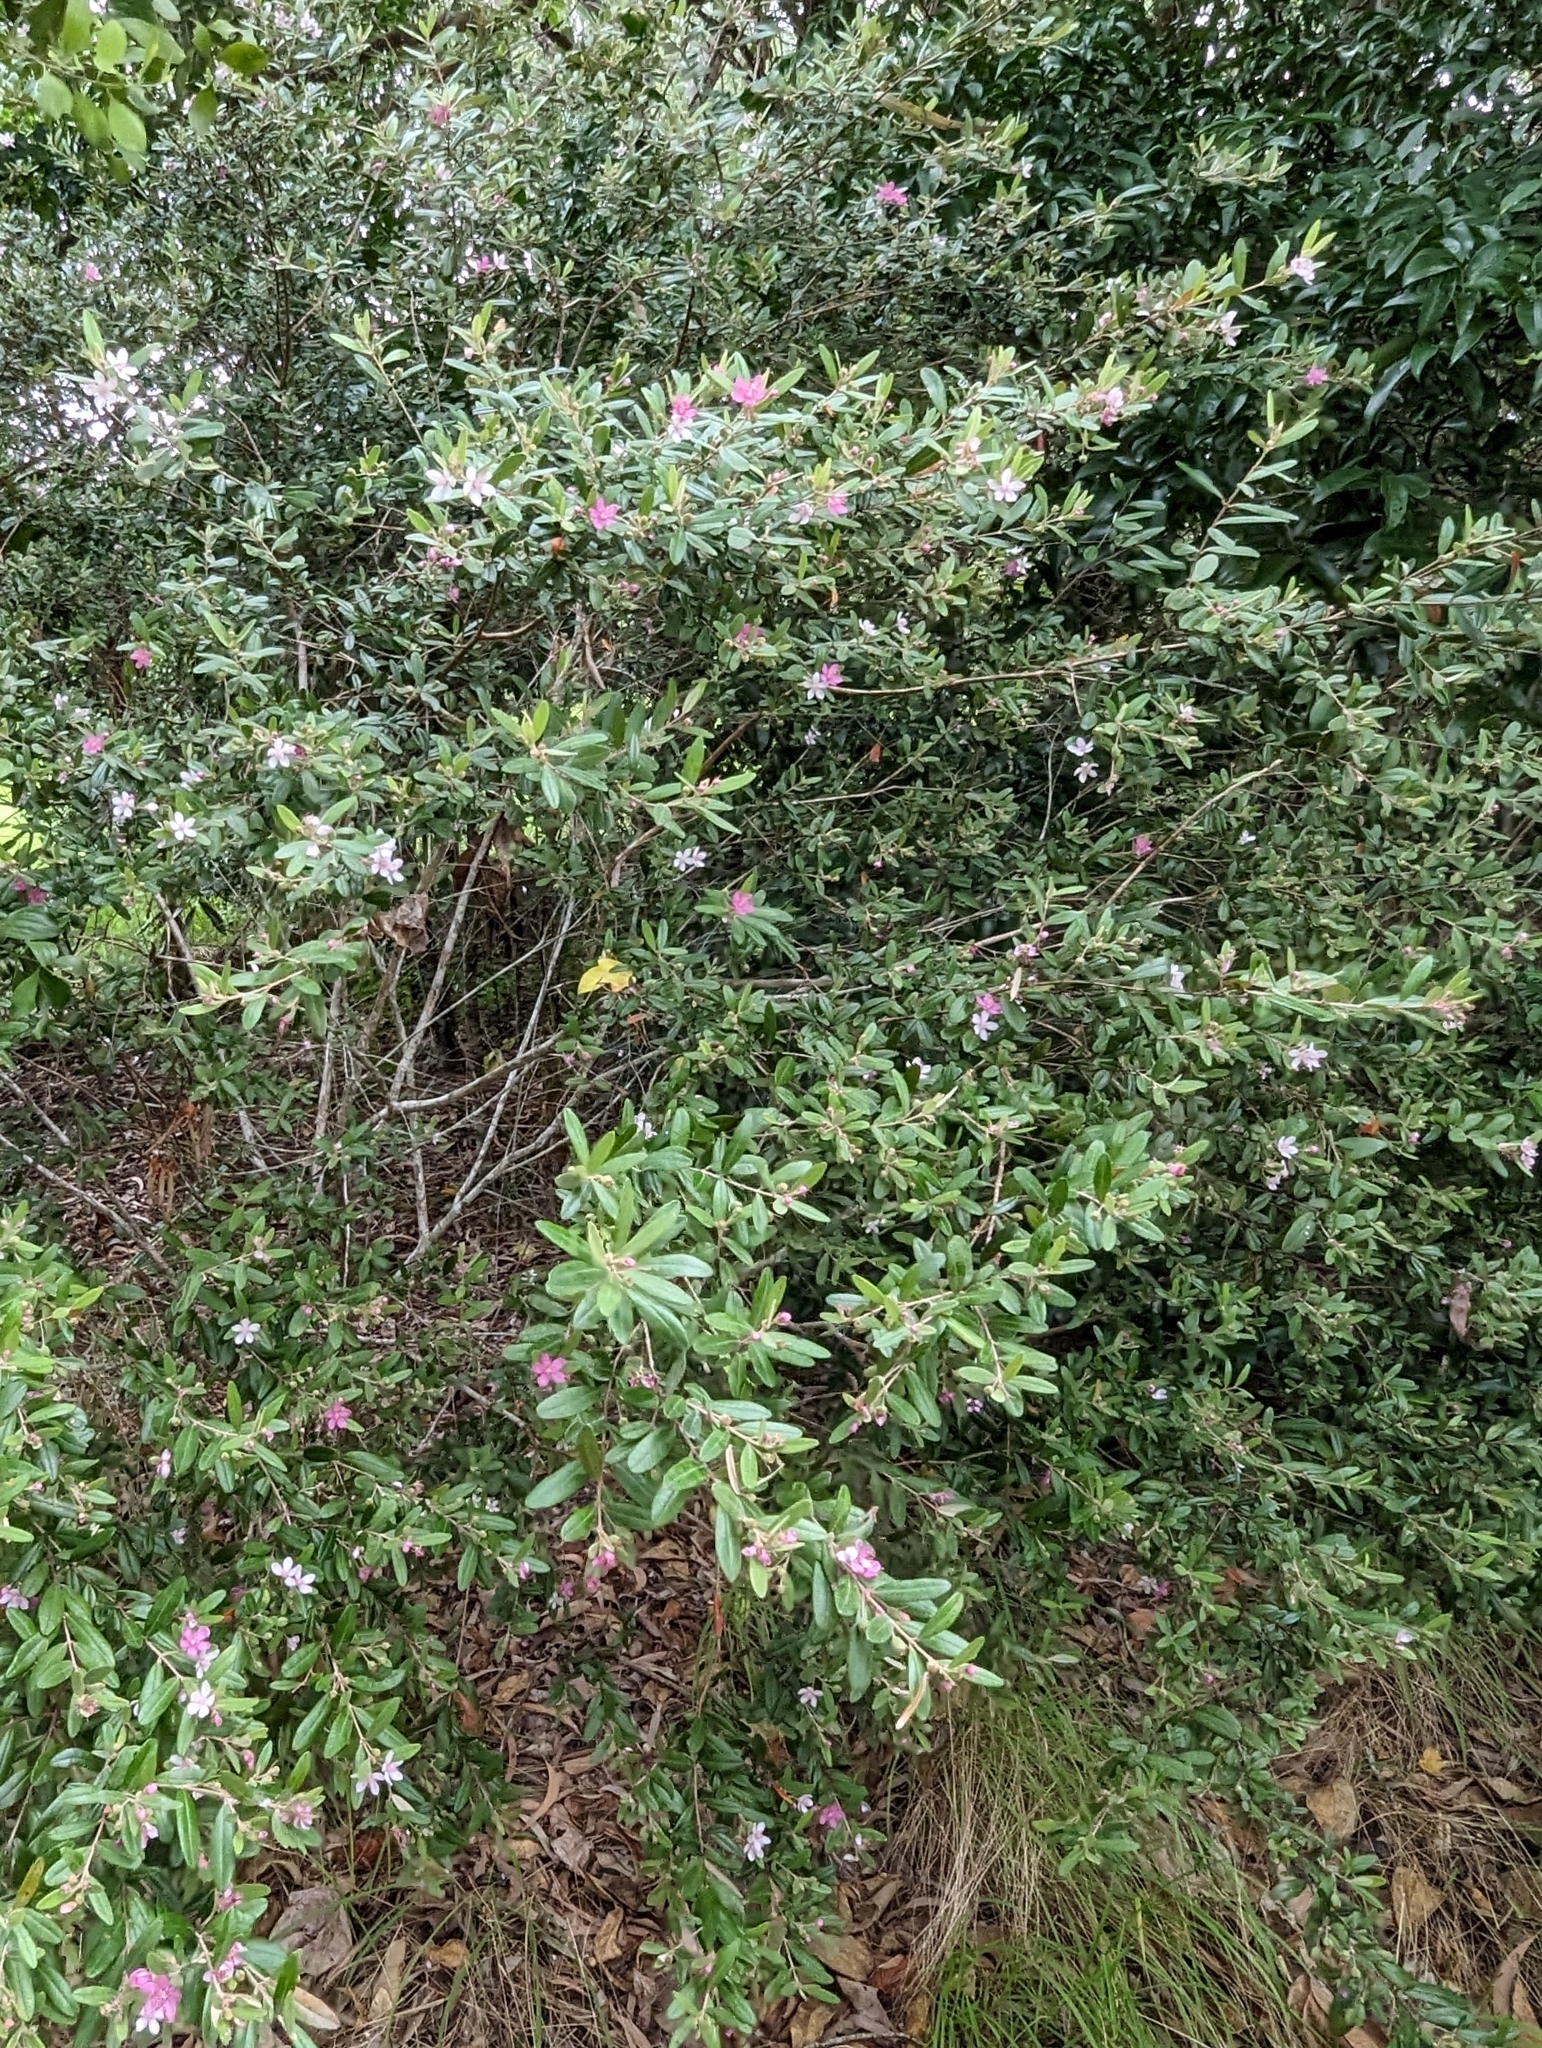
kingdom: Plantae
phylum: Tracheophyta
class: Magnoliopsida
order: Myrtales
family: Myrtaceae
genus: Lithomyrtus
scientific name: Lithomyrtus obtusa
